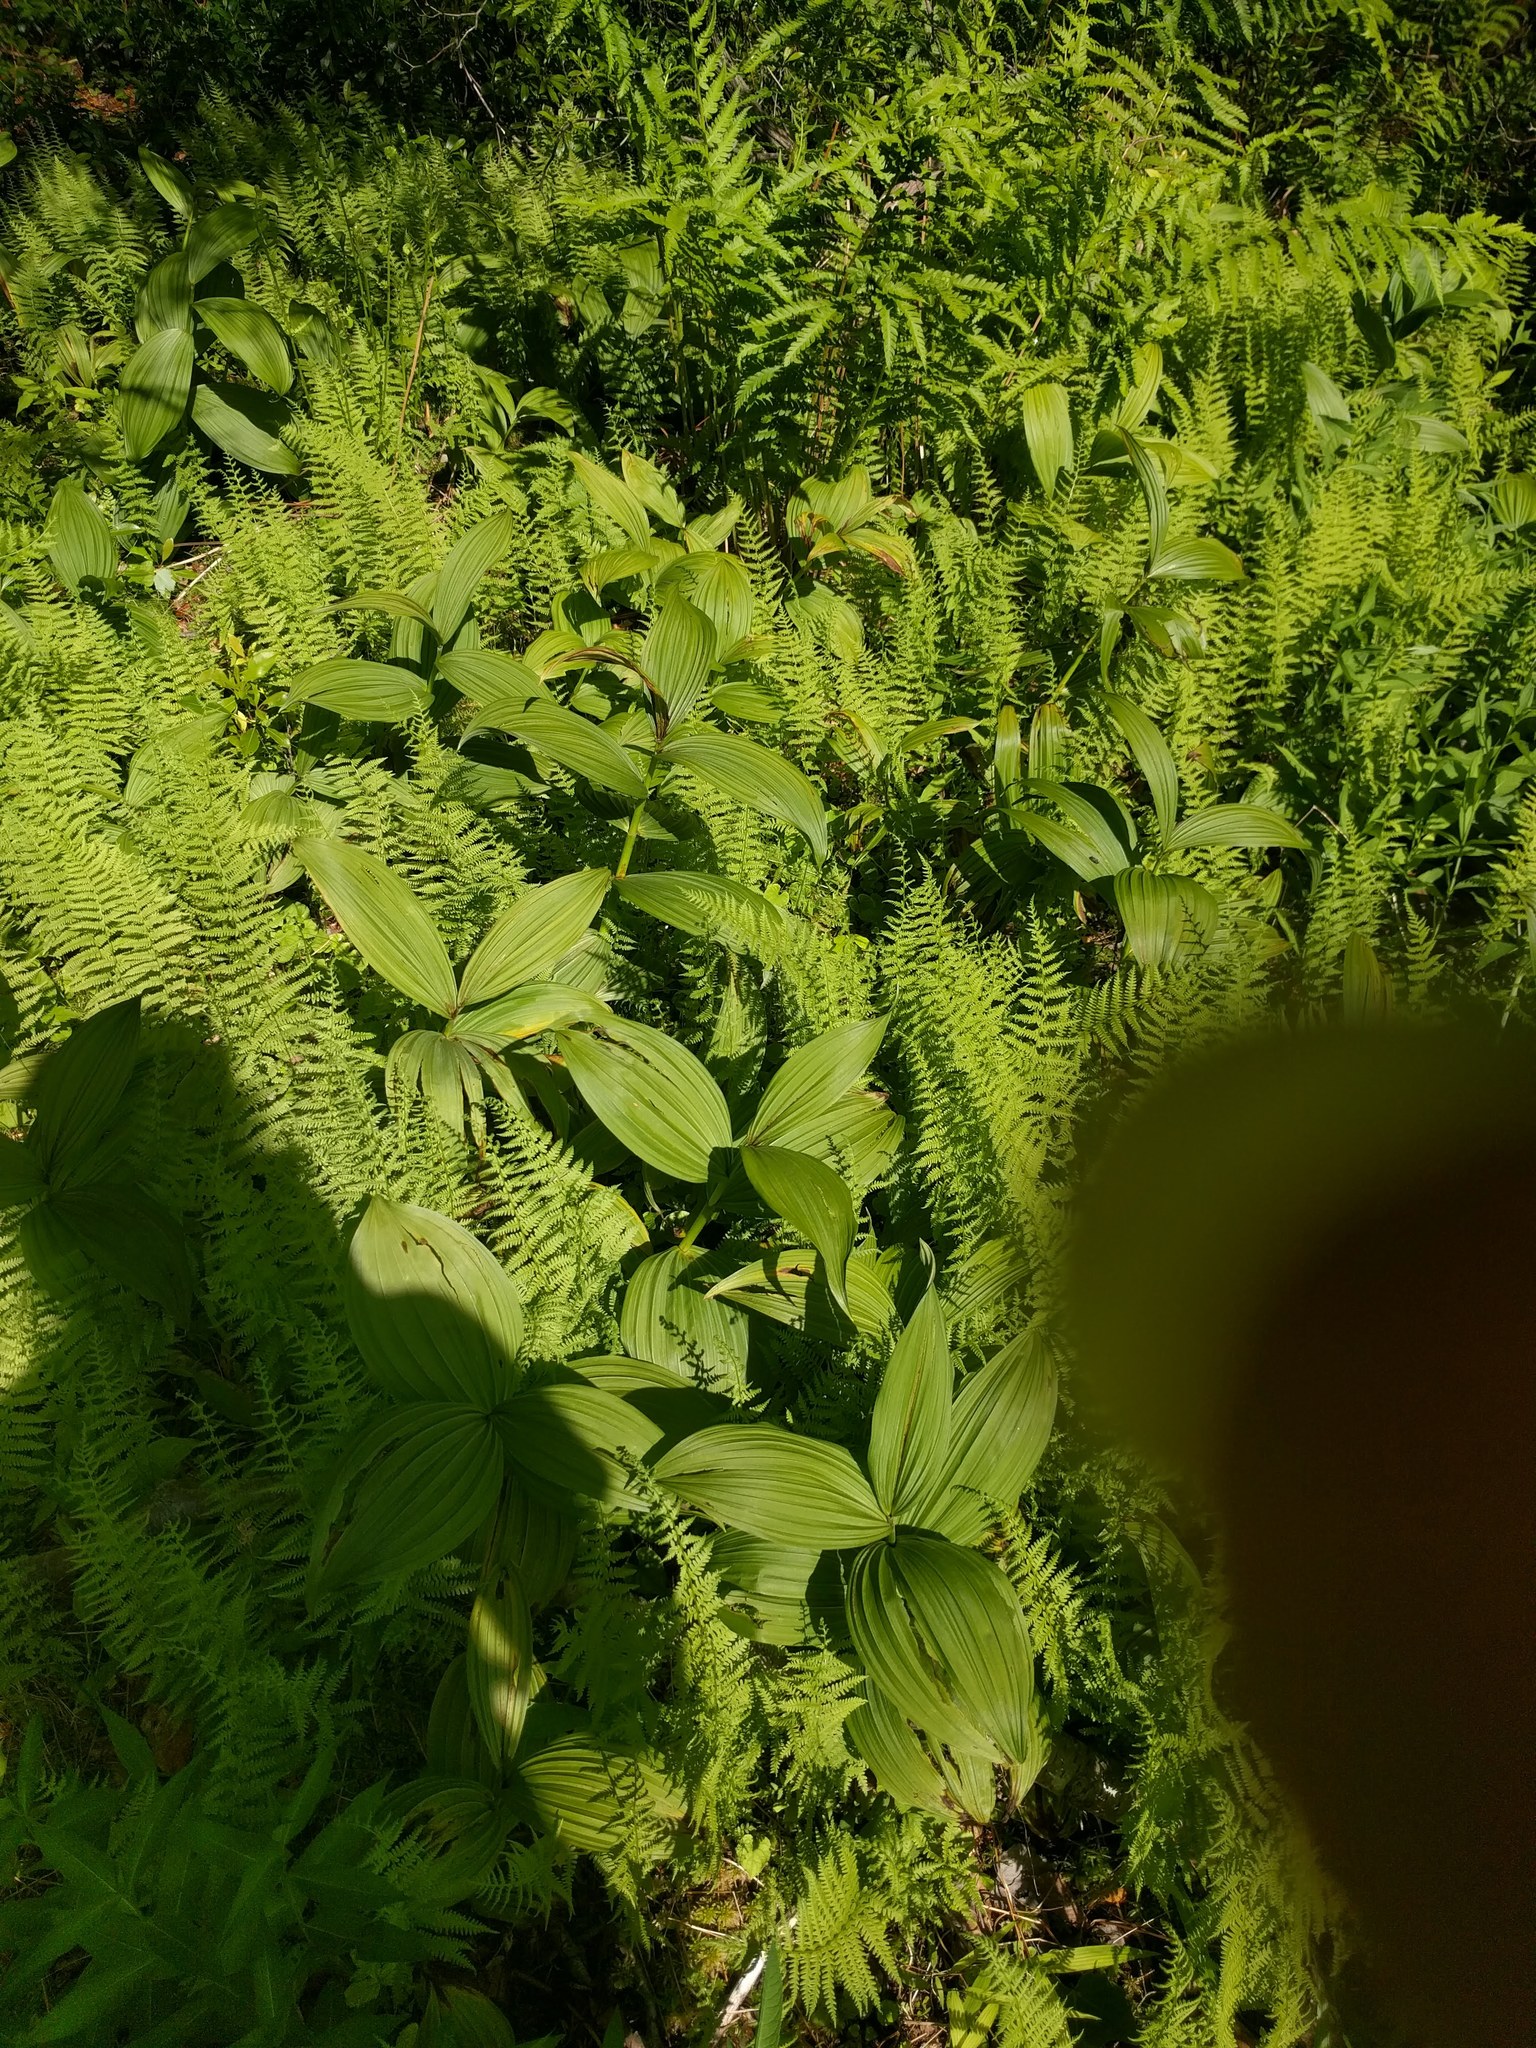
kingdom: Plantae
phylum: Tracheophyta
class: Liliopsida
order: Liliales
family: Melanthiaceae
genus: Veratrum
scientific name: Veratrum viride
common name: American false hellebore
